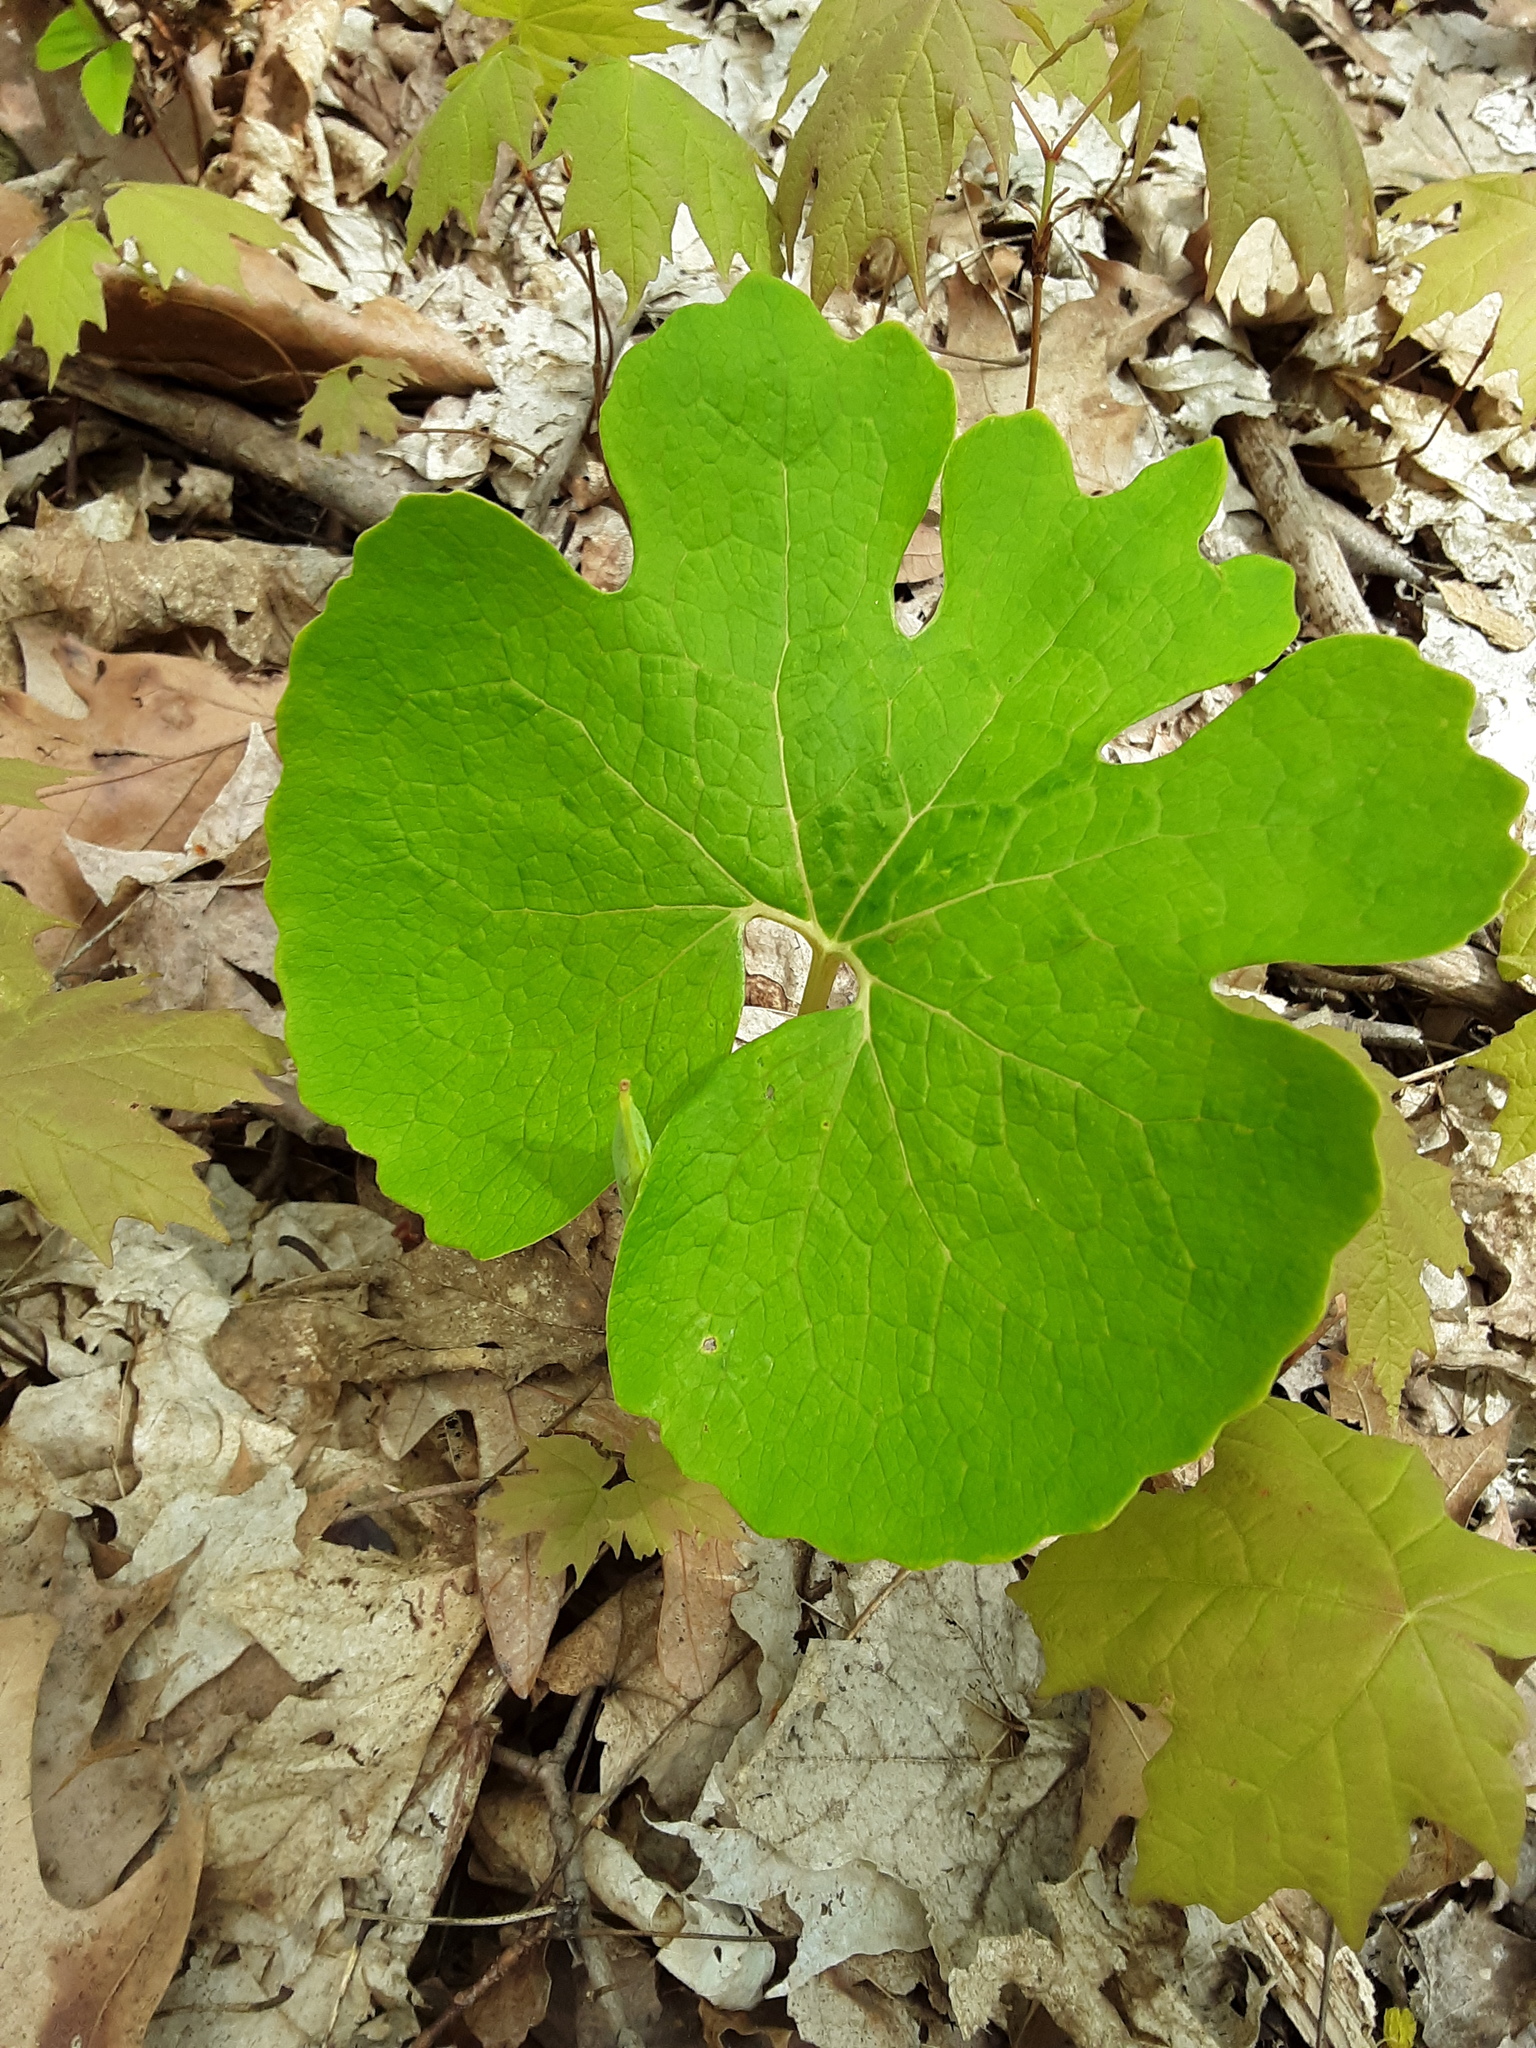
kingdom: Plantae
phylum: Tracheophyta
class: Magnoliopsida
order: Ranunculales
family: Papaveraceae
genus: Sanguinaria
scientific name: Sanguinaria canadensis
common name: Bloodroot
